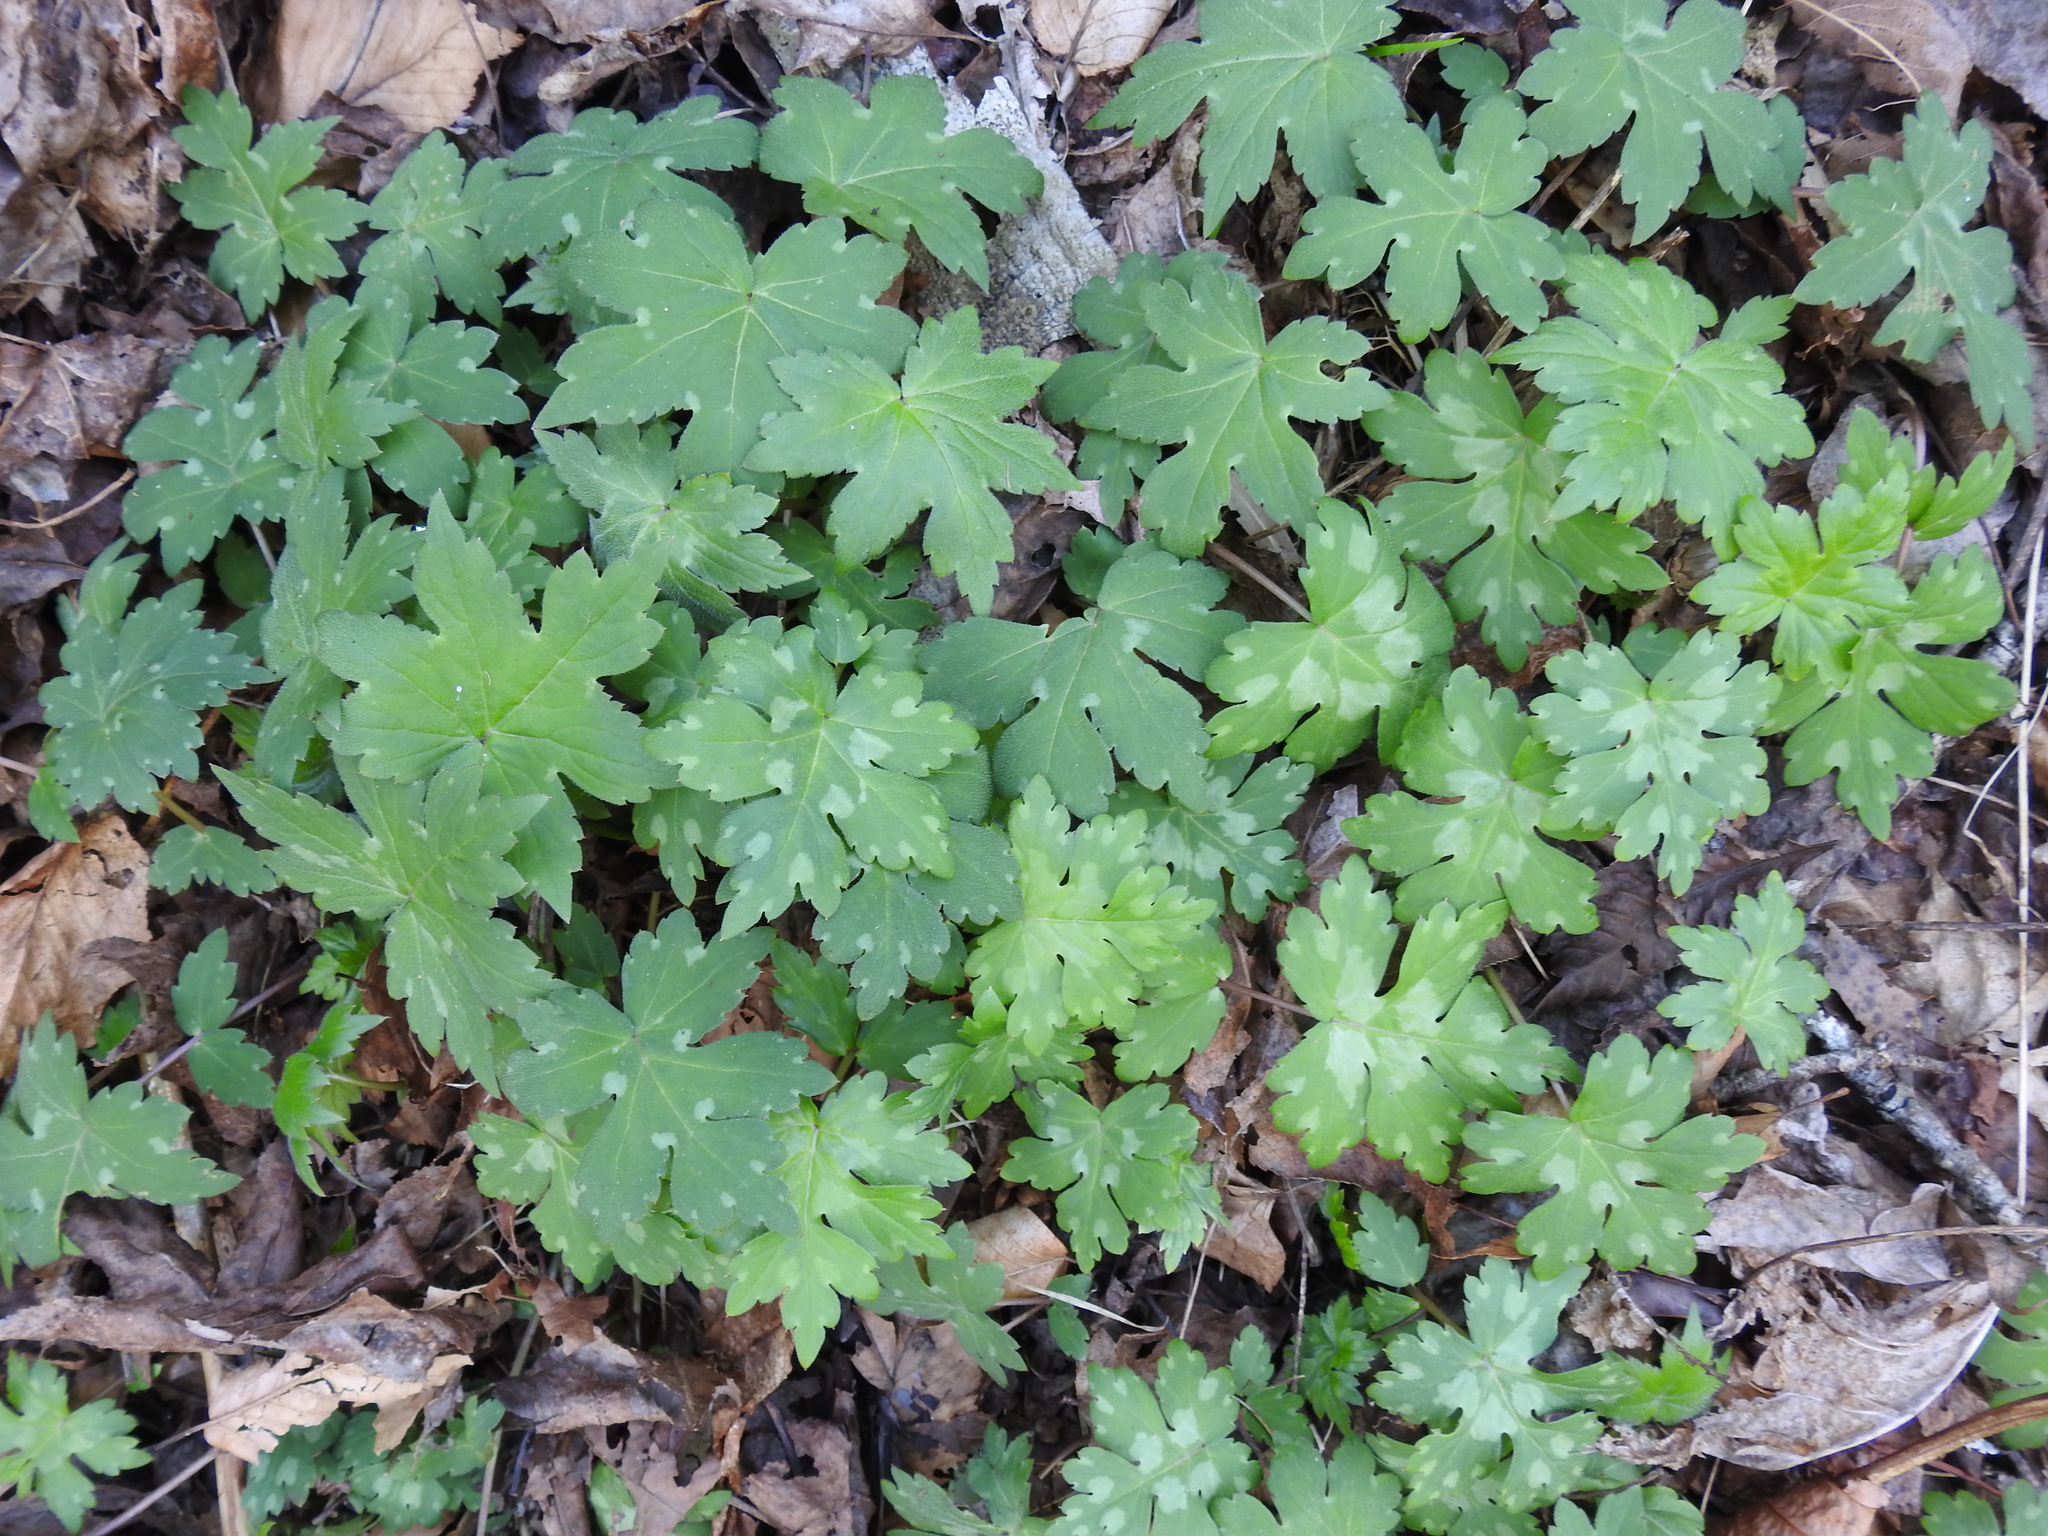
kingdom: Plantae
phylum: Tracheophyta
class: Magnoliopsida
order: Boraginales
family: Hydrophyllaceae
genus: Hydrophyllum
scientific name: Hydrophyllum canadense
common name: Canada waterleaf
